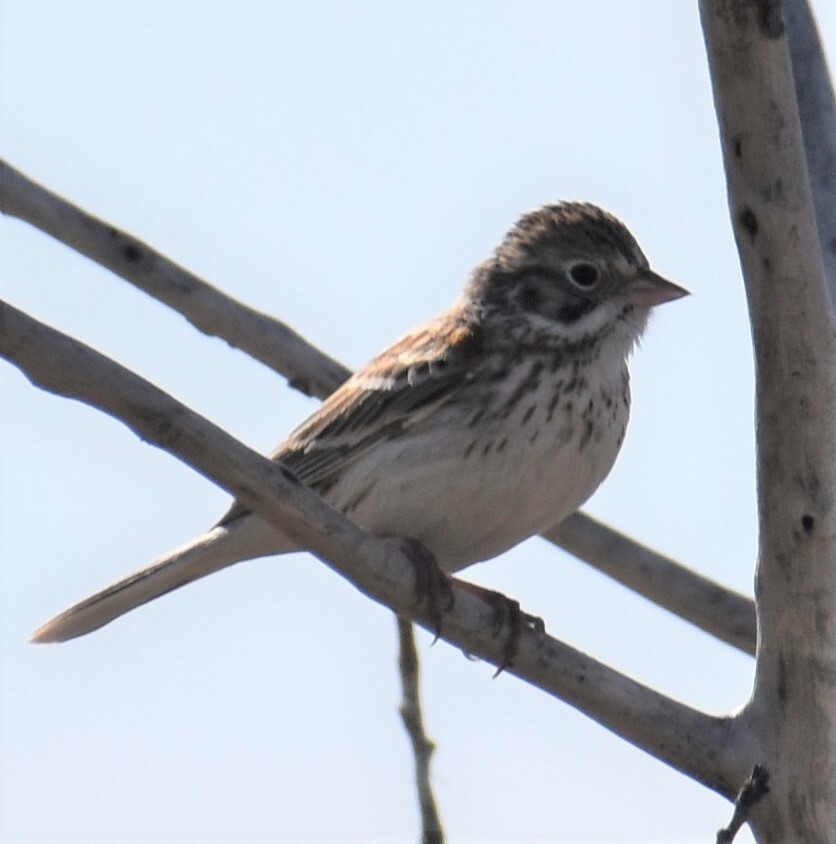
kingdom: Animalia
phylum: Chordata
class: Aves
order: Passeriformes
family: Passerellidae
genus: Pooecetes
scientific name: Pooecetes gramineus
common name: Vesper sparrow
